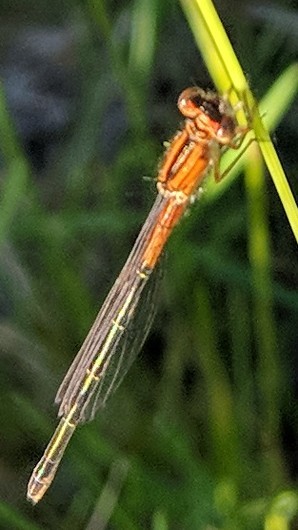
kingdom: Animalia
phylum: Arthropoda
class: Insecta
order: Odonata
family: Coenagrionidae
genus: Ischnura
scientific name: Ischnura verticalis
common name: Eastern forktail
